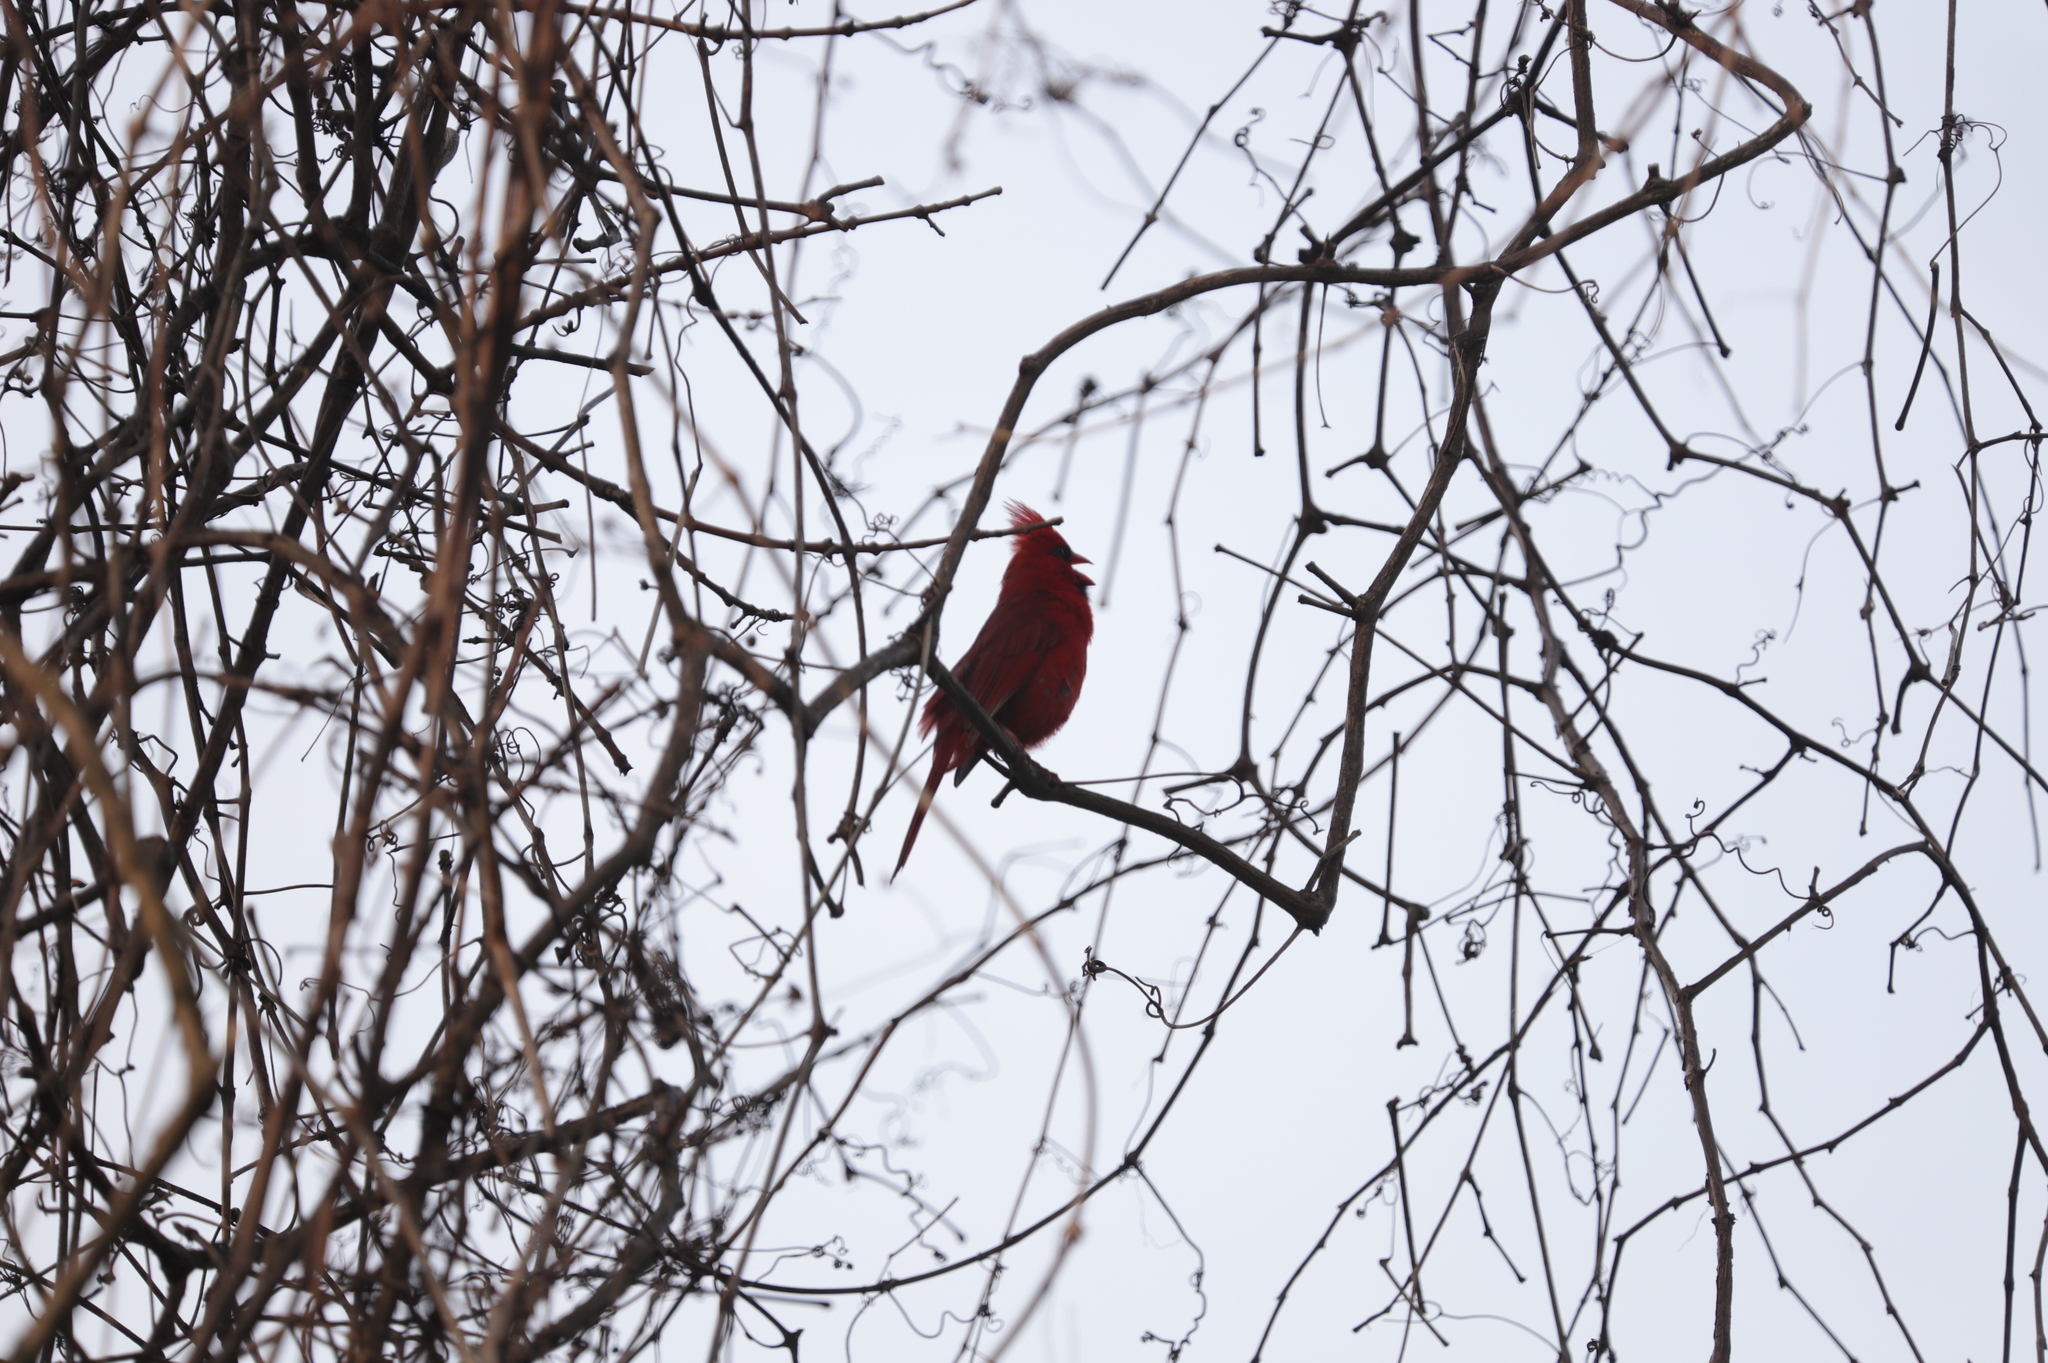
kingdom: Animalia
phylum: Chordata
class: Aves
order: Passeriformes
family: Cardinalidae
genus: Cardinalis
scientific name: Cardinalis cardinalis
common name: Northern cardinal
